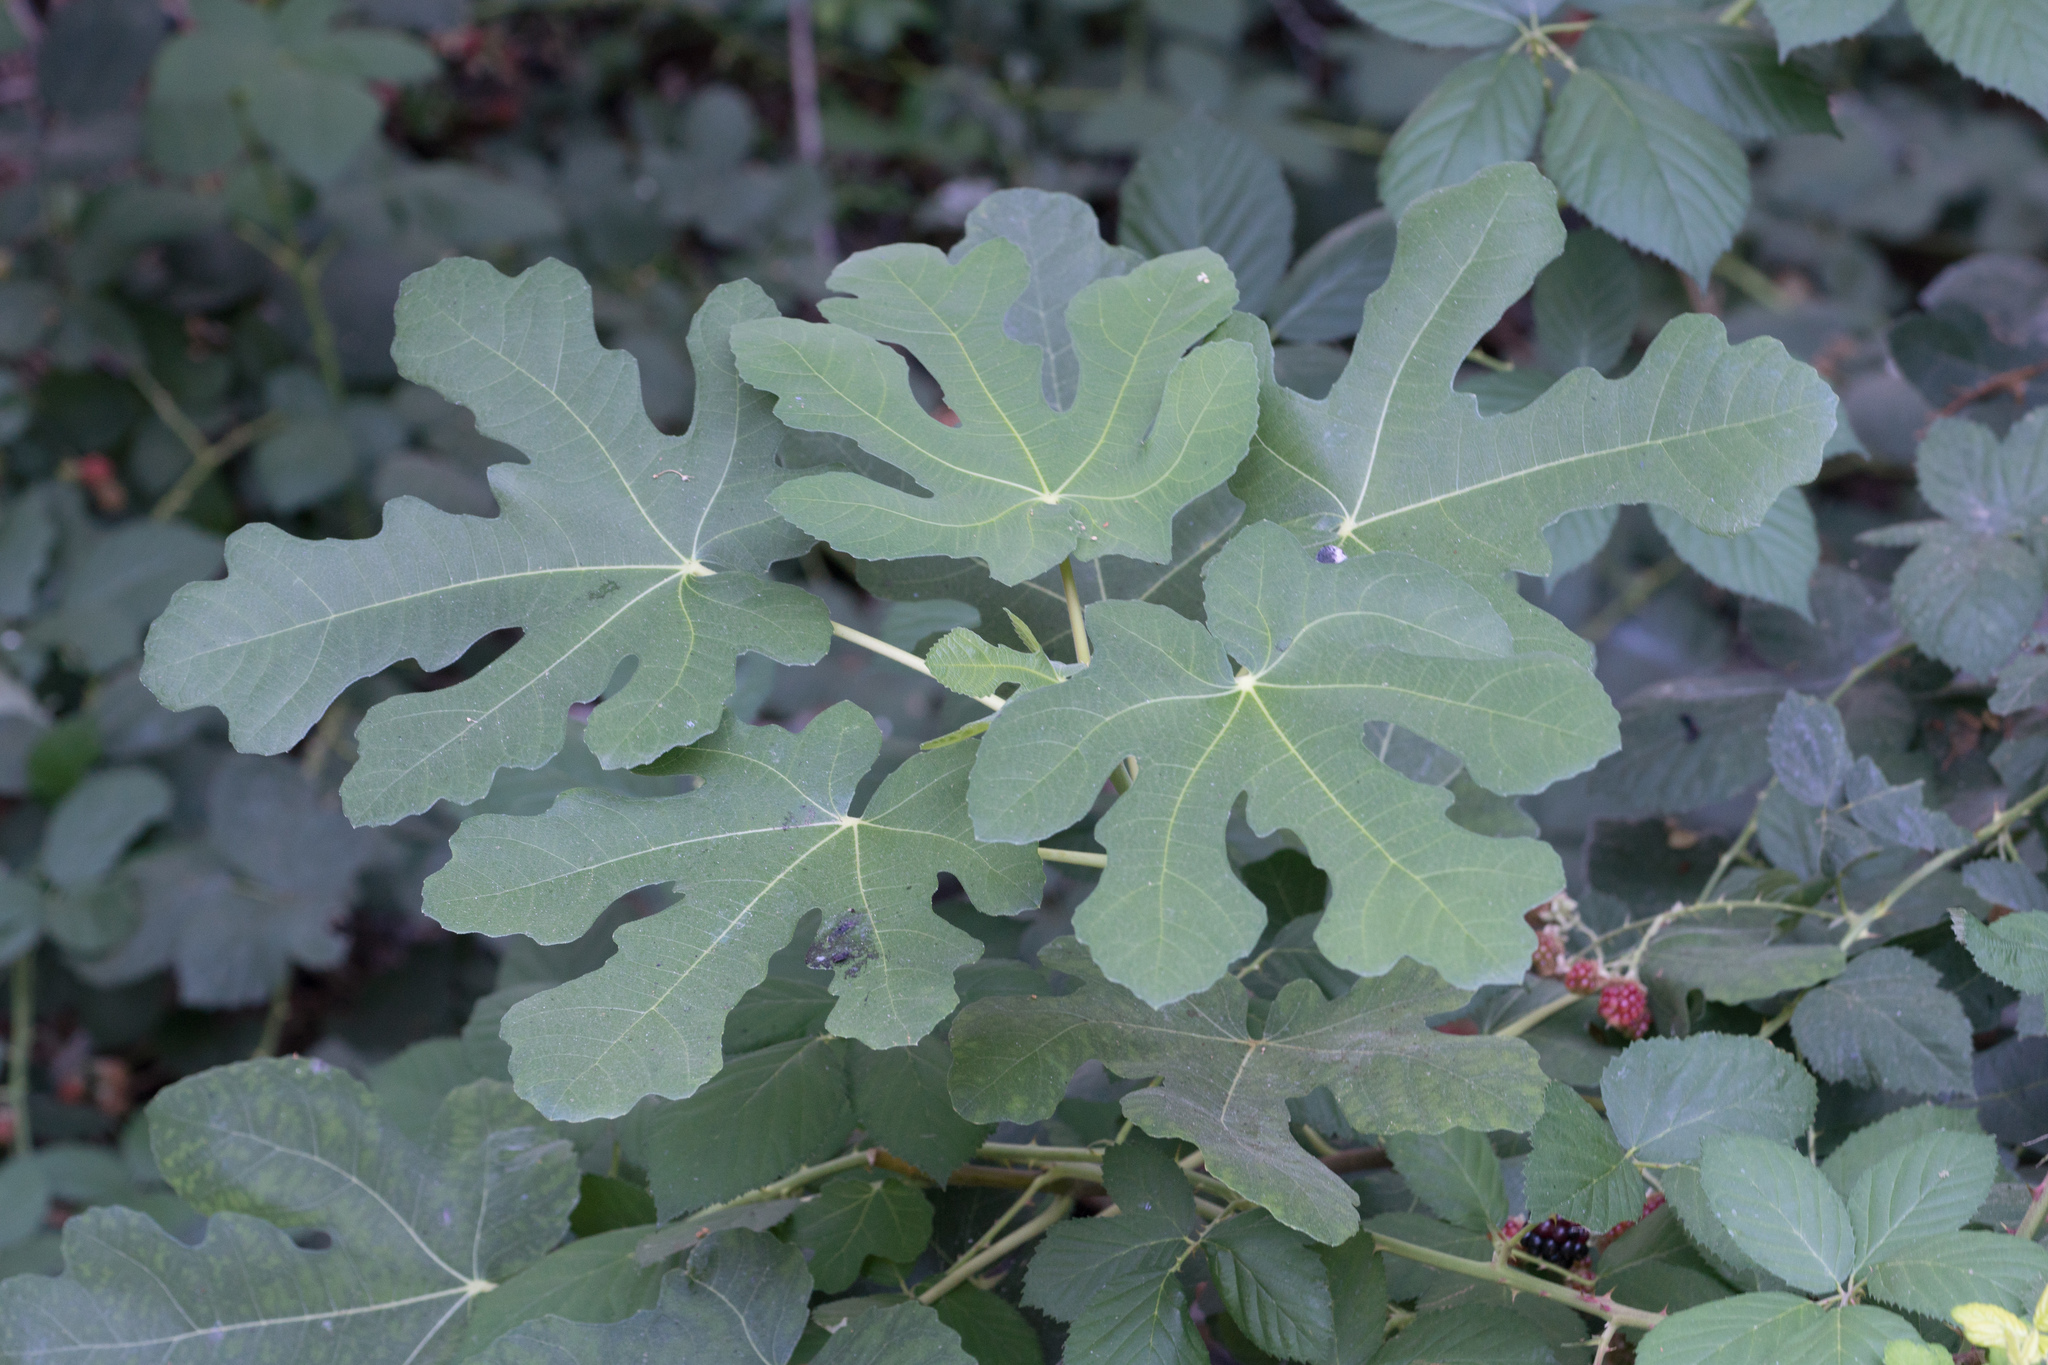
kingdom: Plantae
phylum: Tracheophyta
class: Magnoliopsida
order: Rosales
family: Moraceae
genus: Ficus
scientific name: Ficus carica
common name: Fig
